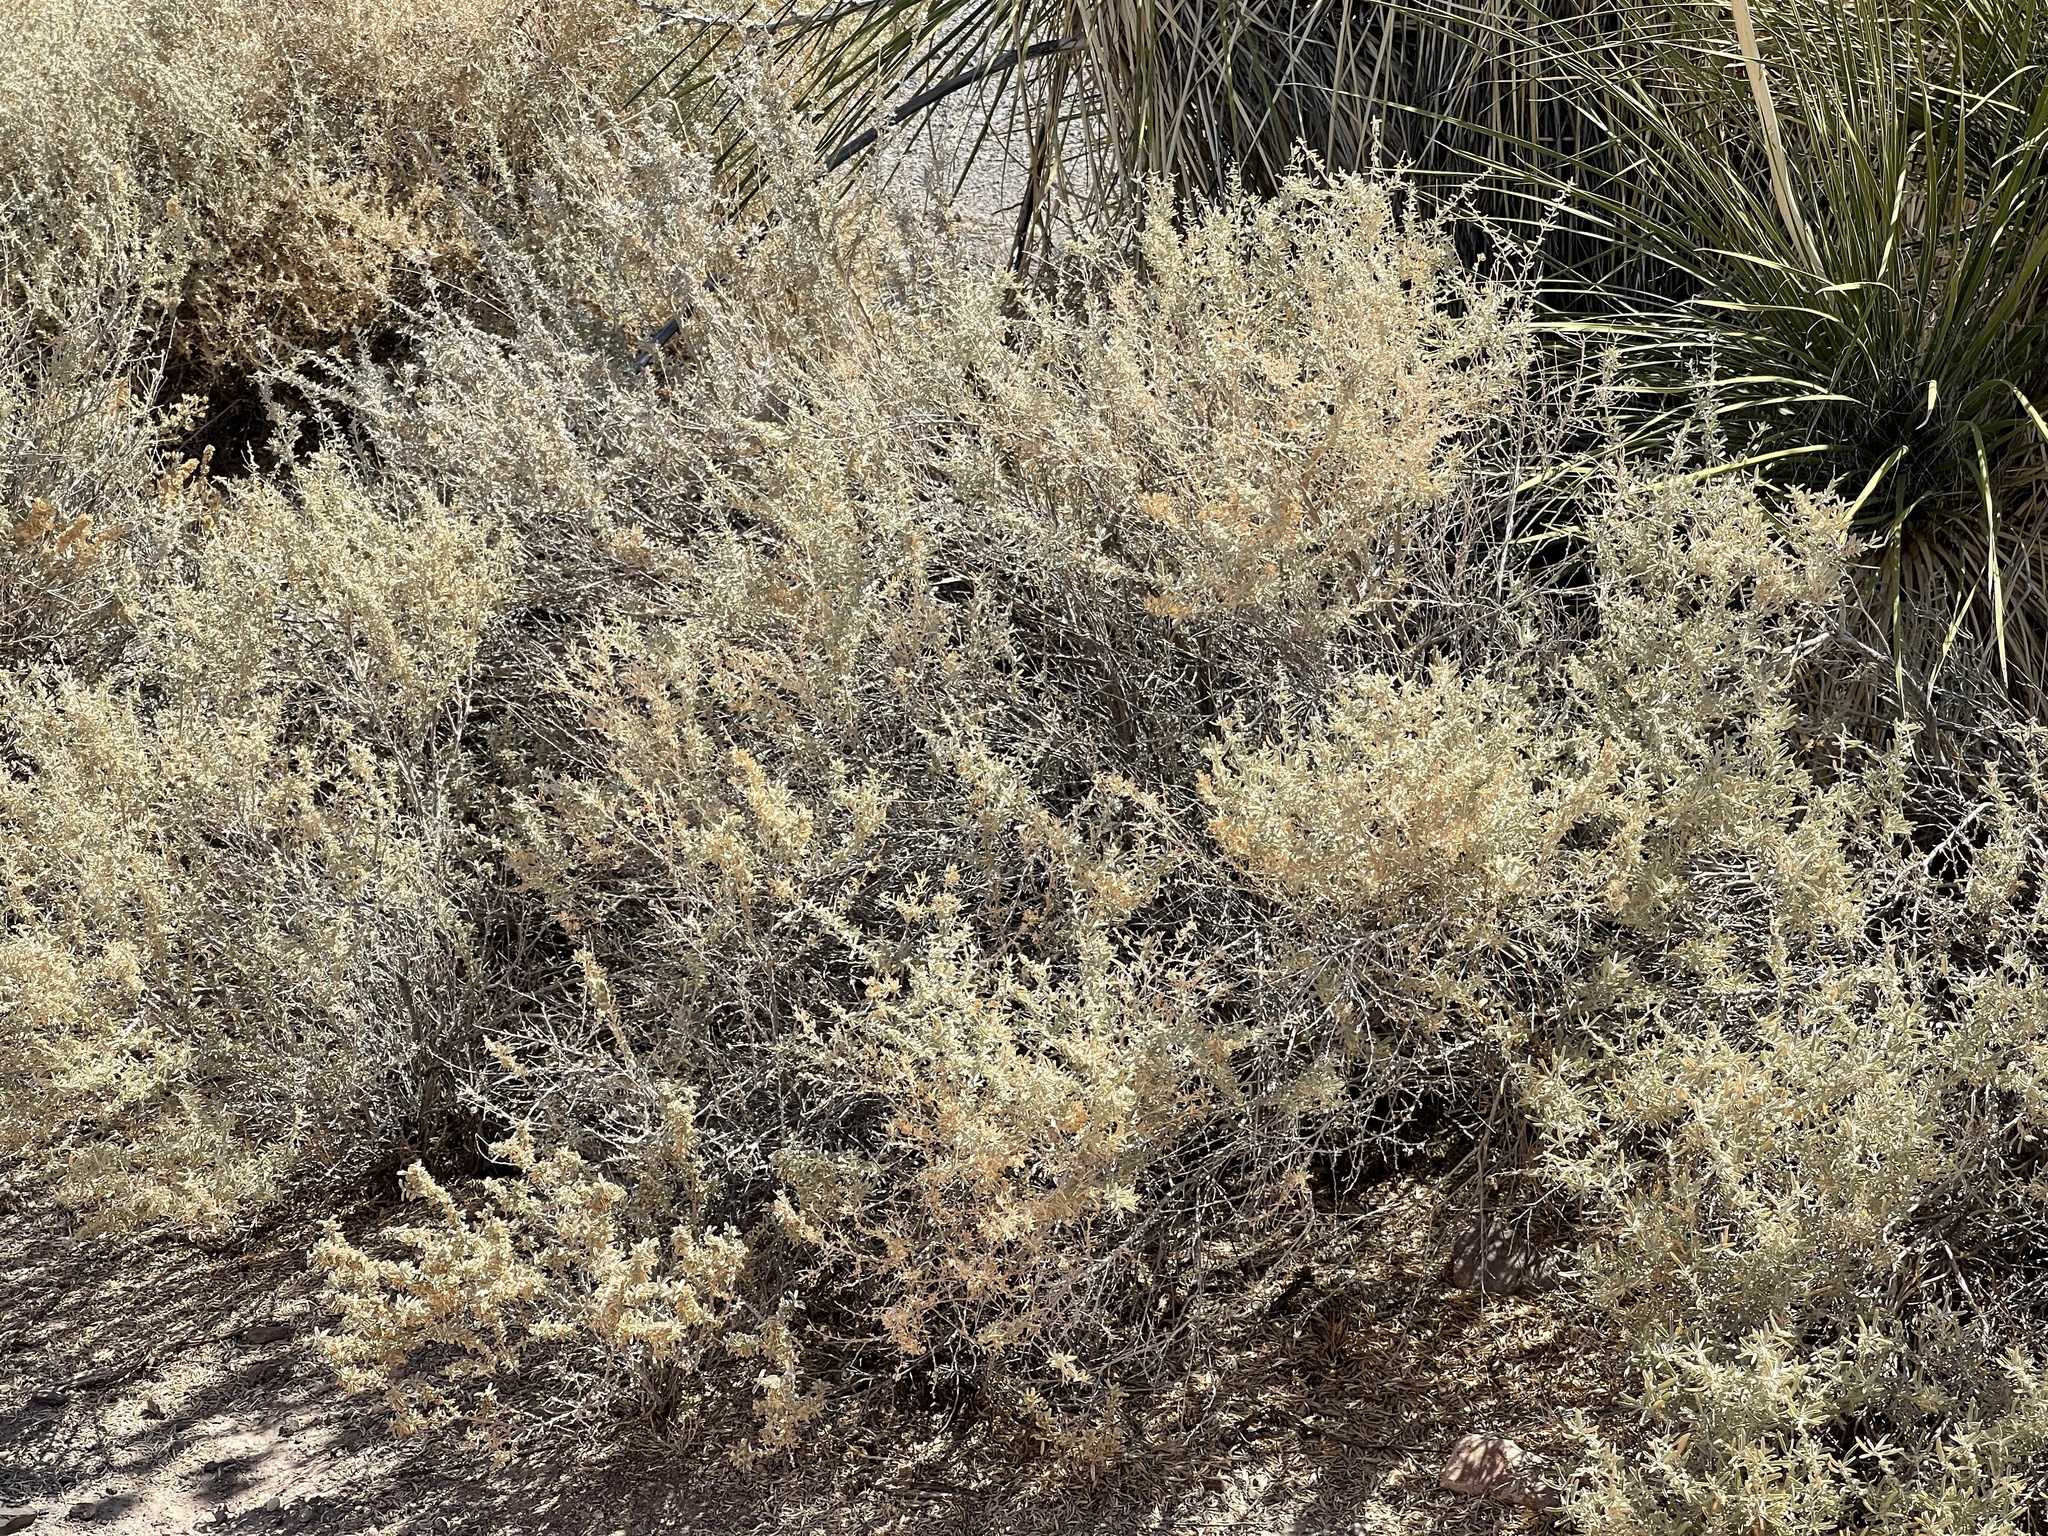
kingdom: Plantae
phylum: Tracheophyta
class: Magnoliopsida
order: Caryophyllales
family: Amaranthaceae
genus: Atriplex
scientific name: Atriplex canescens
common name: Four-wing saltbush
